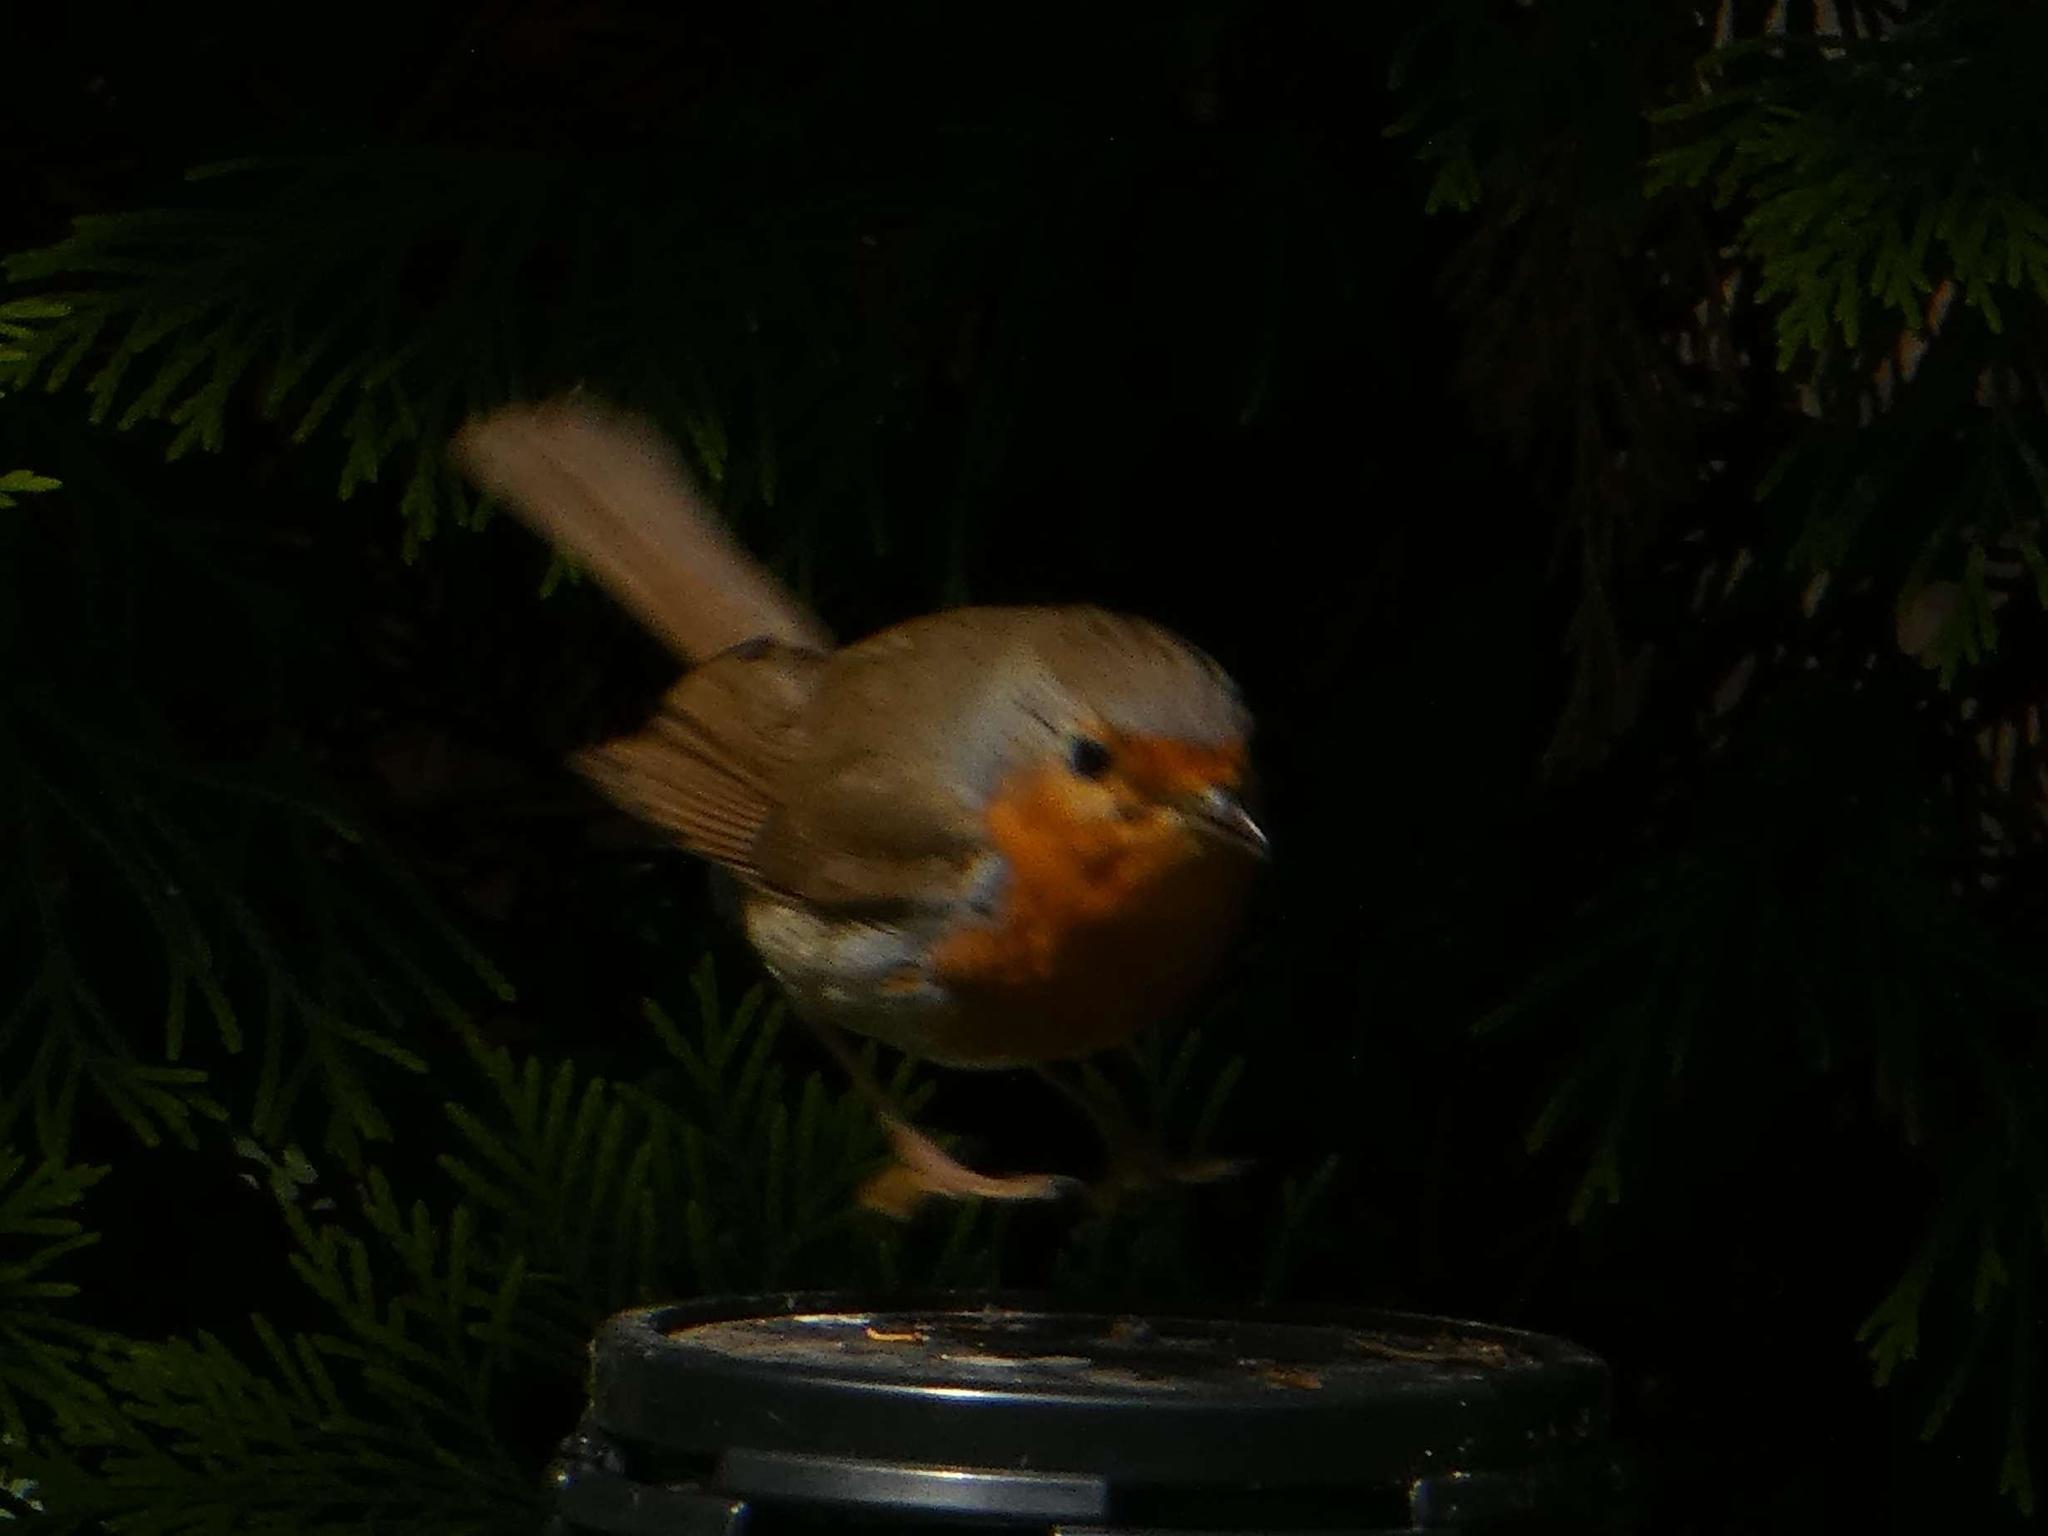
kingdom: Animalia
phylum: Chordata
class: Aves
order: Passeriformes
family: Muscicapidae
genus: Erithacus
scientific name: Erithacus rubecula
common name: European robin
